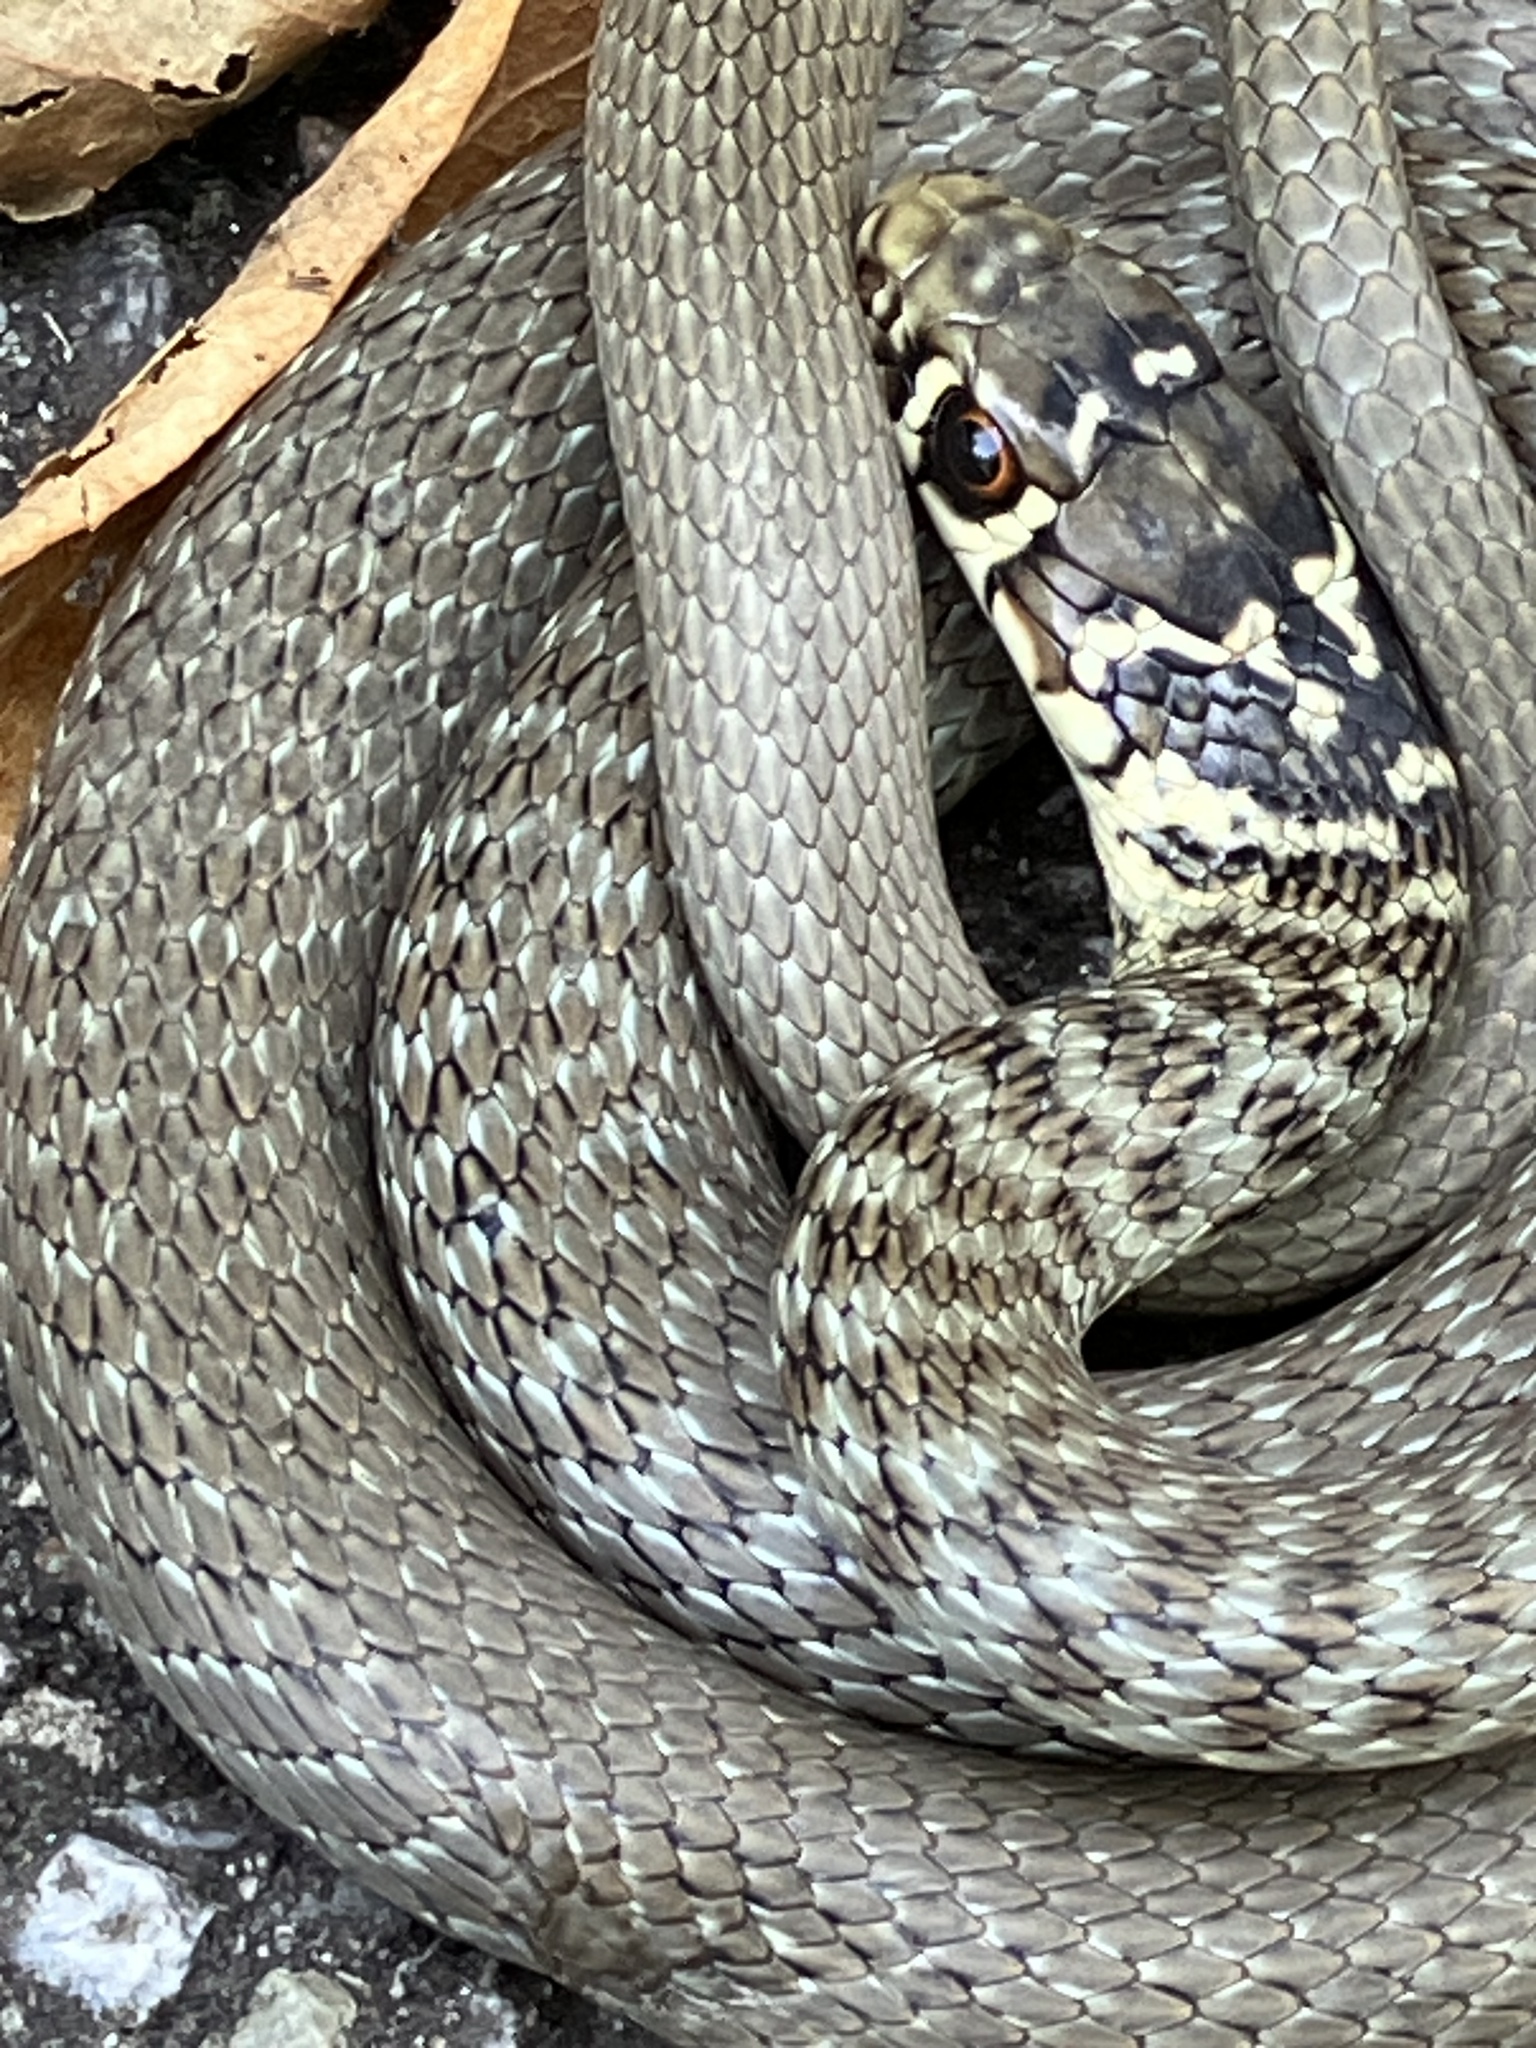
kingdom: Animalia
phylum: Chordata
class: Squamata
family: Colubridae
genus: Hierophis
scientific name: Hierophis viridiflavus
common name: Green whip snake
